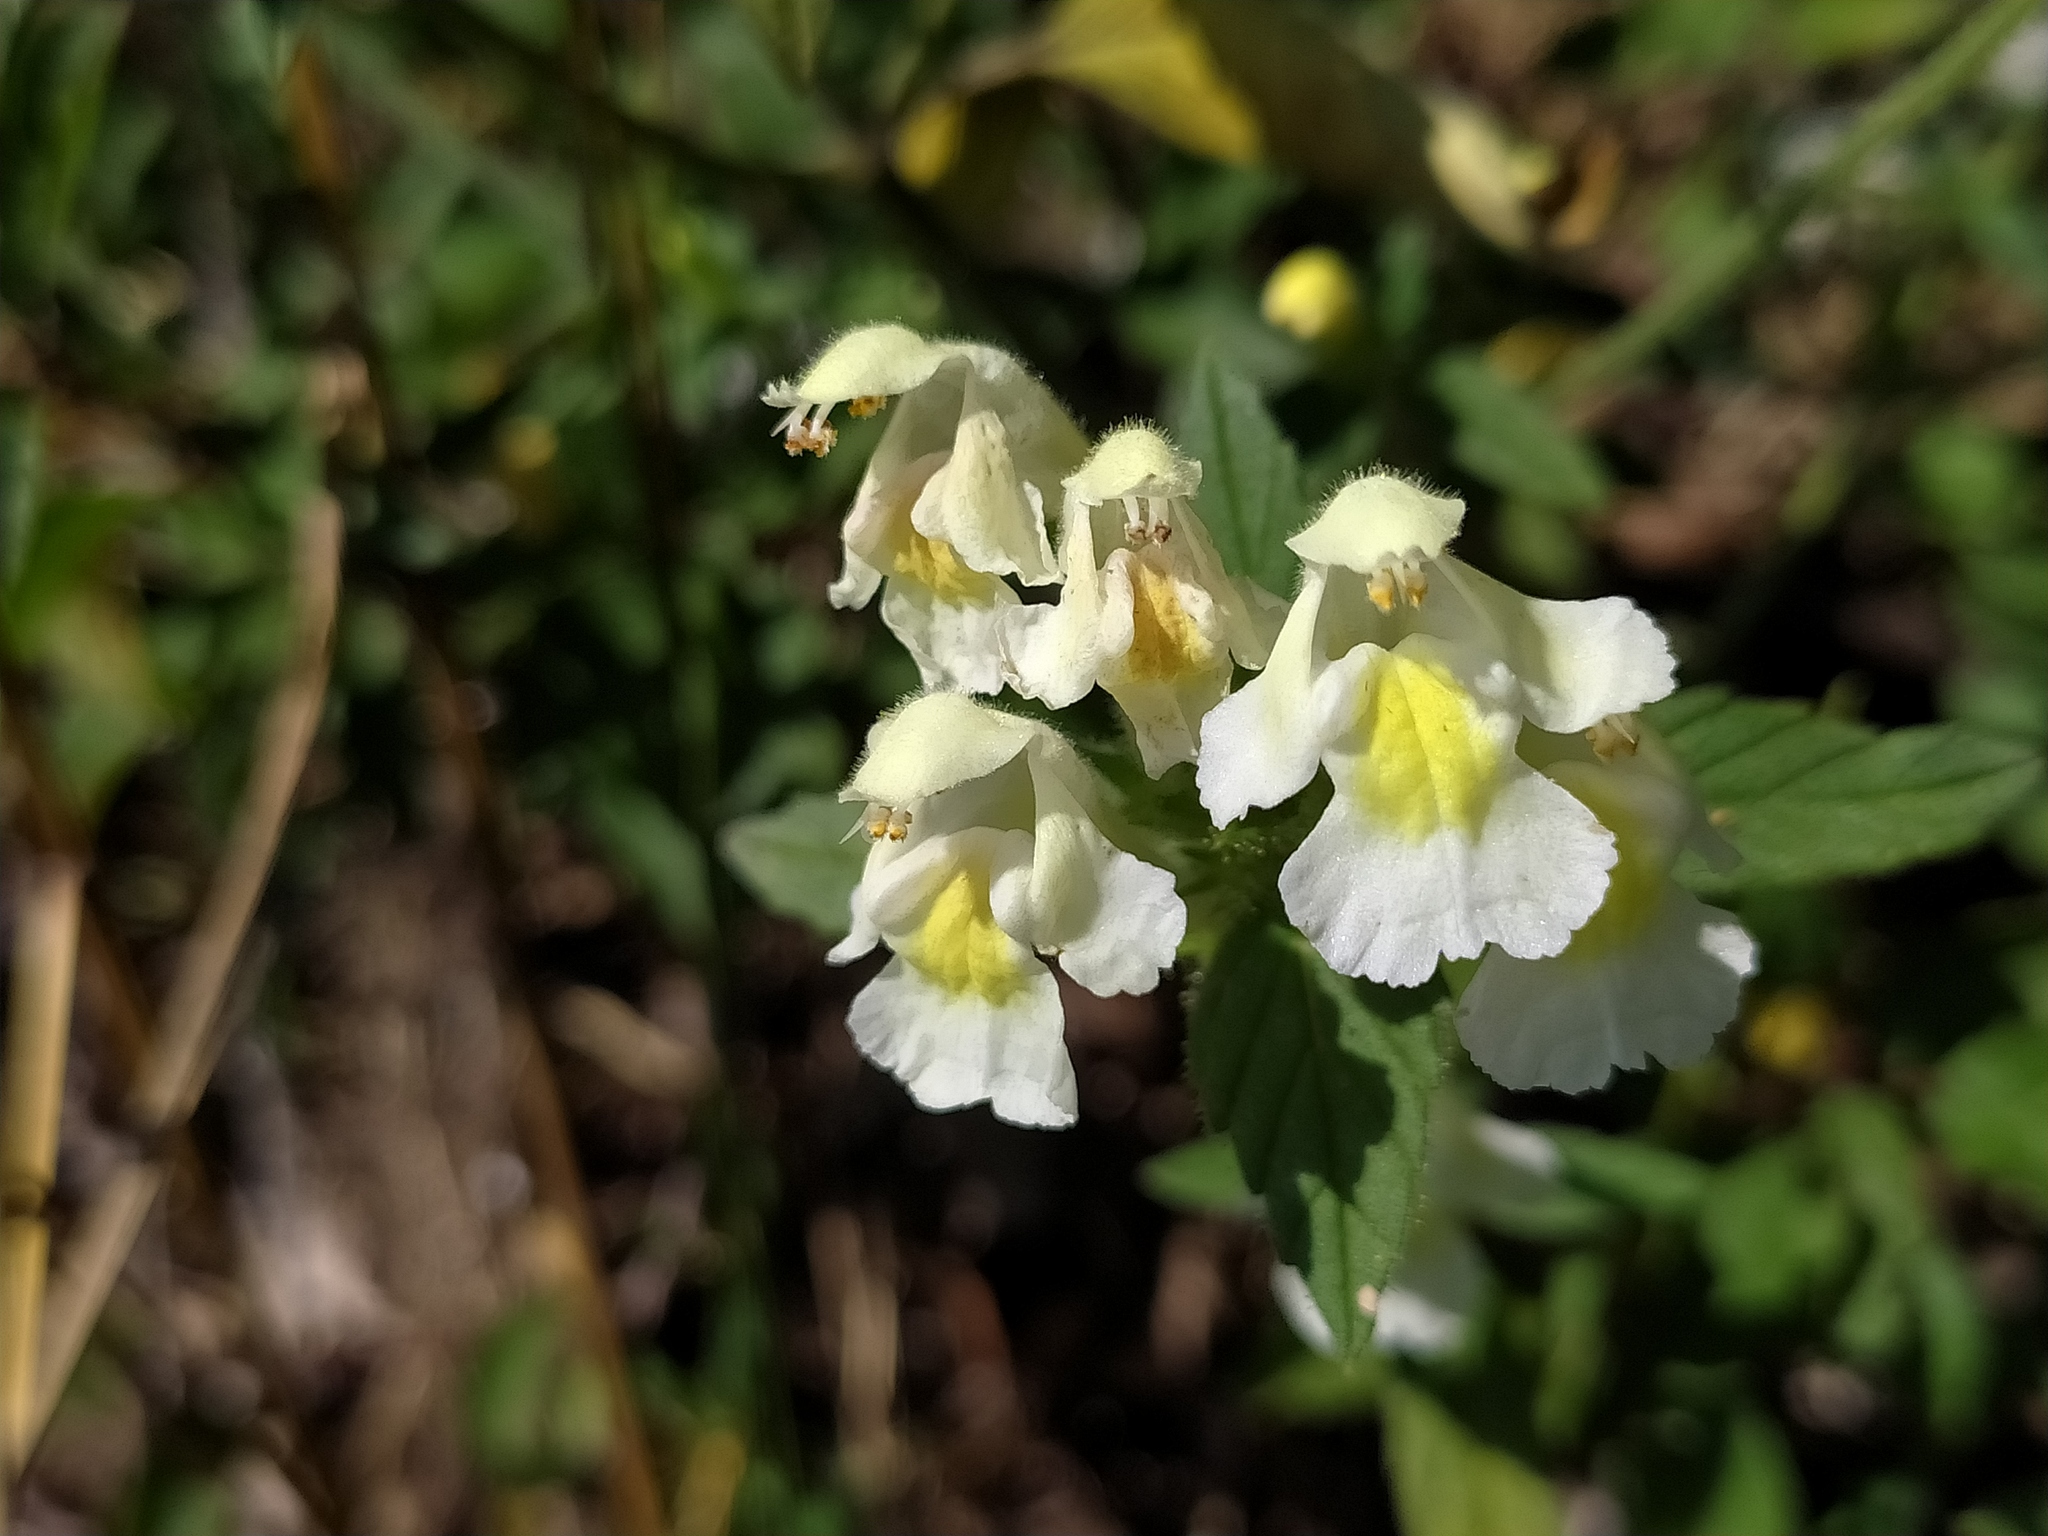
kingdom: Plantae
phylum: Tracheophyta
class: Magnoliopsida
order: Lamiales
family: Lamiaceae
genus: Galeopsis
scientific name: Galeopsis segetum
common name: Downy hemp-nettle
